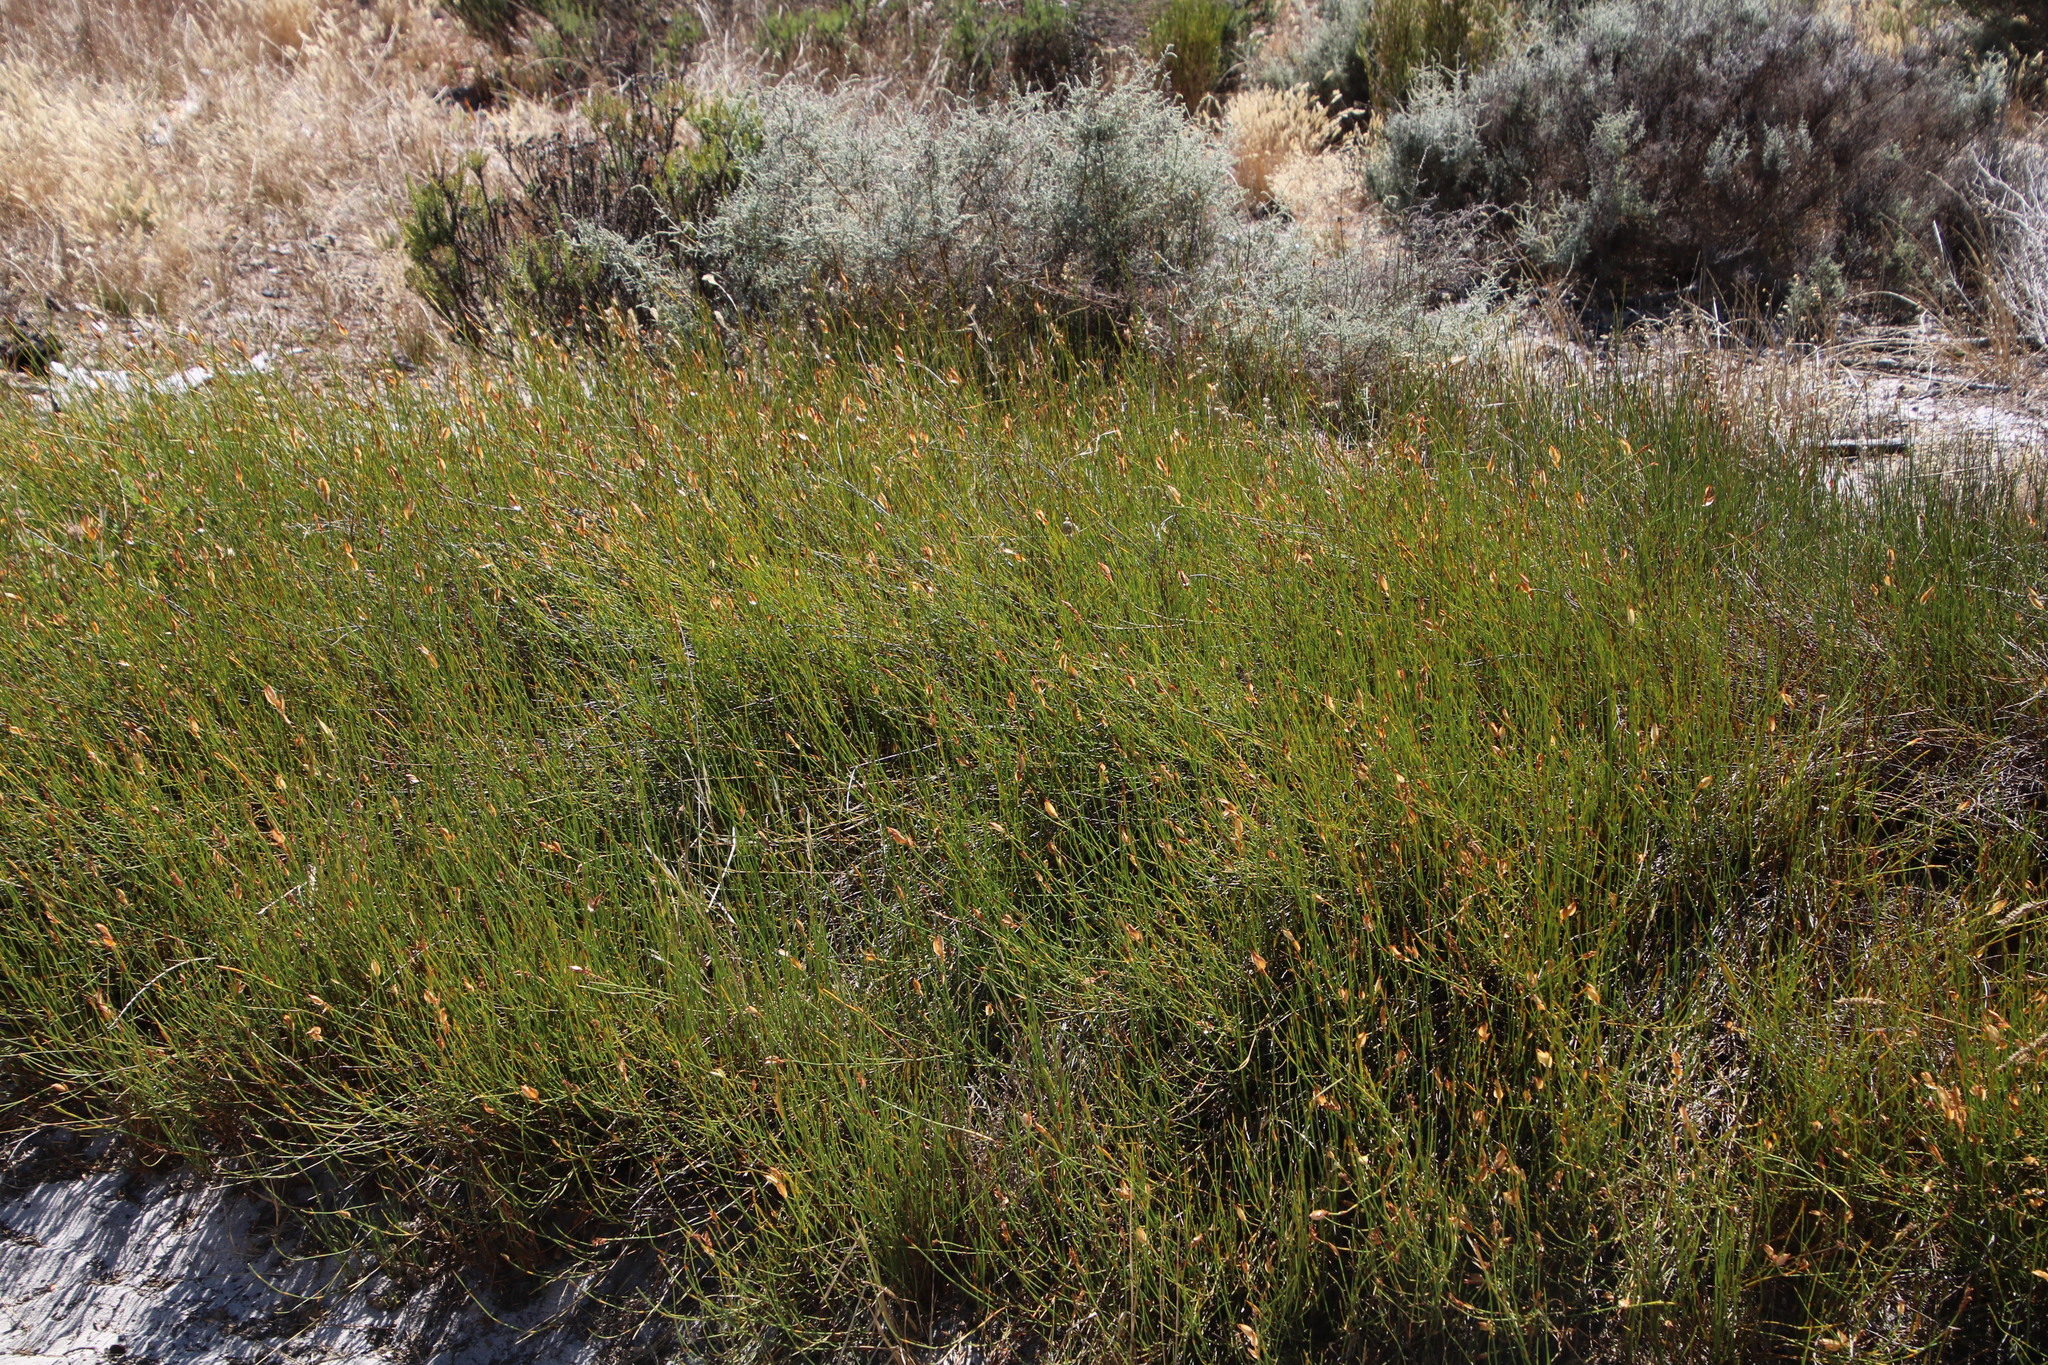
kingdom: Plantae
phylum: Tracheophyta
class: Liliopsida
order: Poales
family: Restionaceae
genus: Willdenowia
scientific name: Willdenowia sulcata
